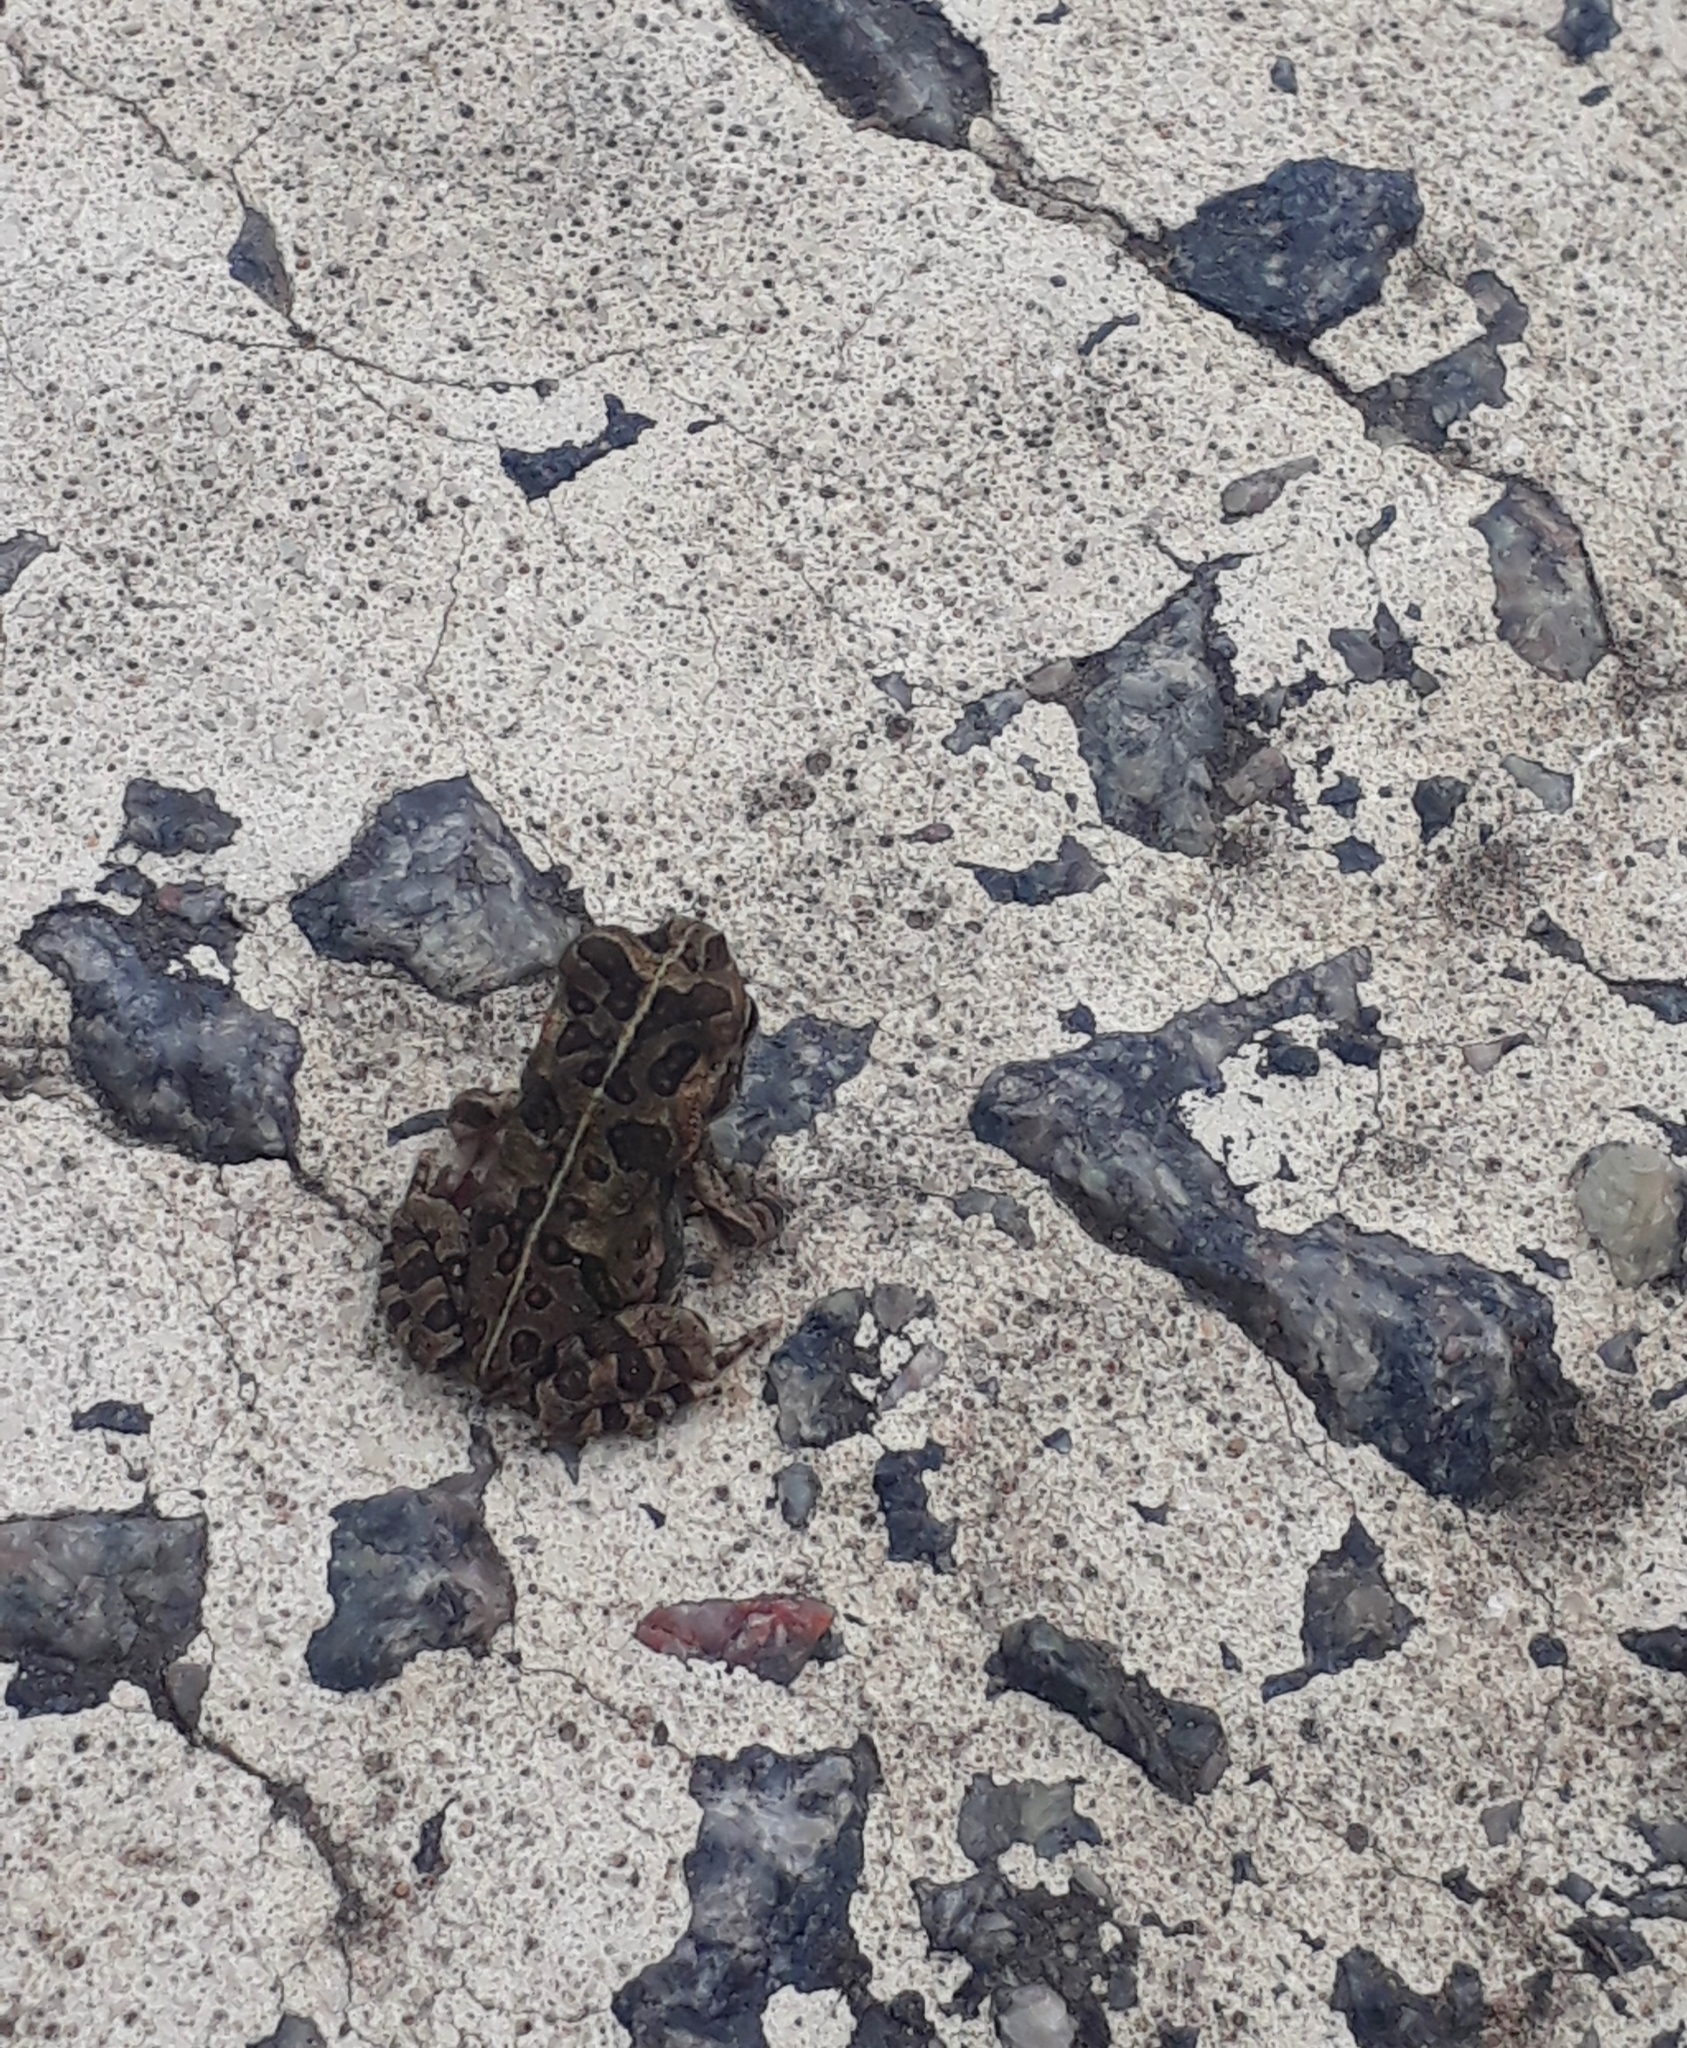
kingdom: Animalia
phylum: Chordata
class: Amphibia
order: Anura
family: Bufonidae
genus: Rhinella
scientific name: Rhinella arenarum
